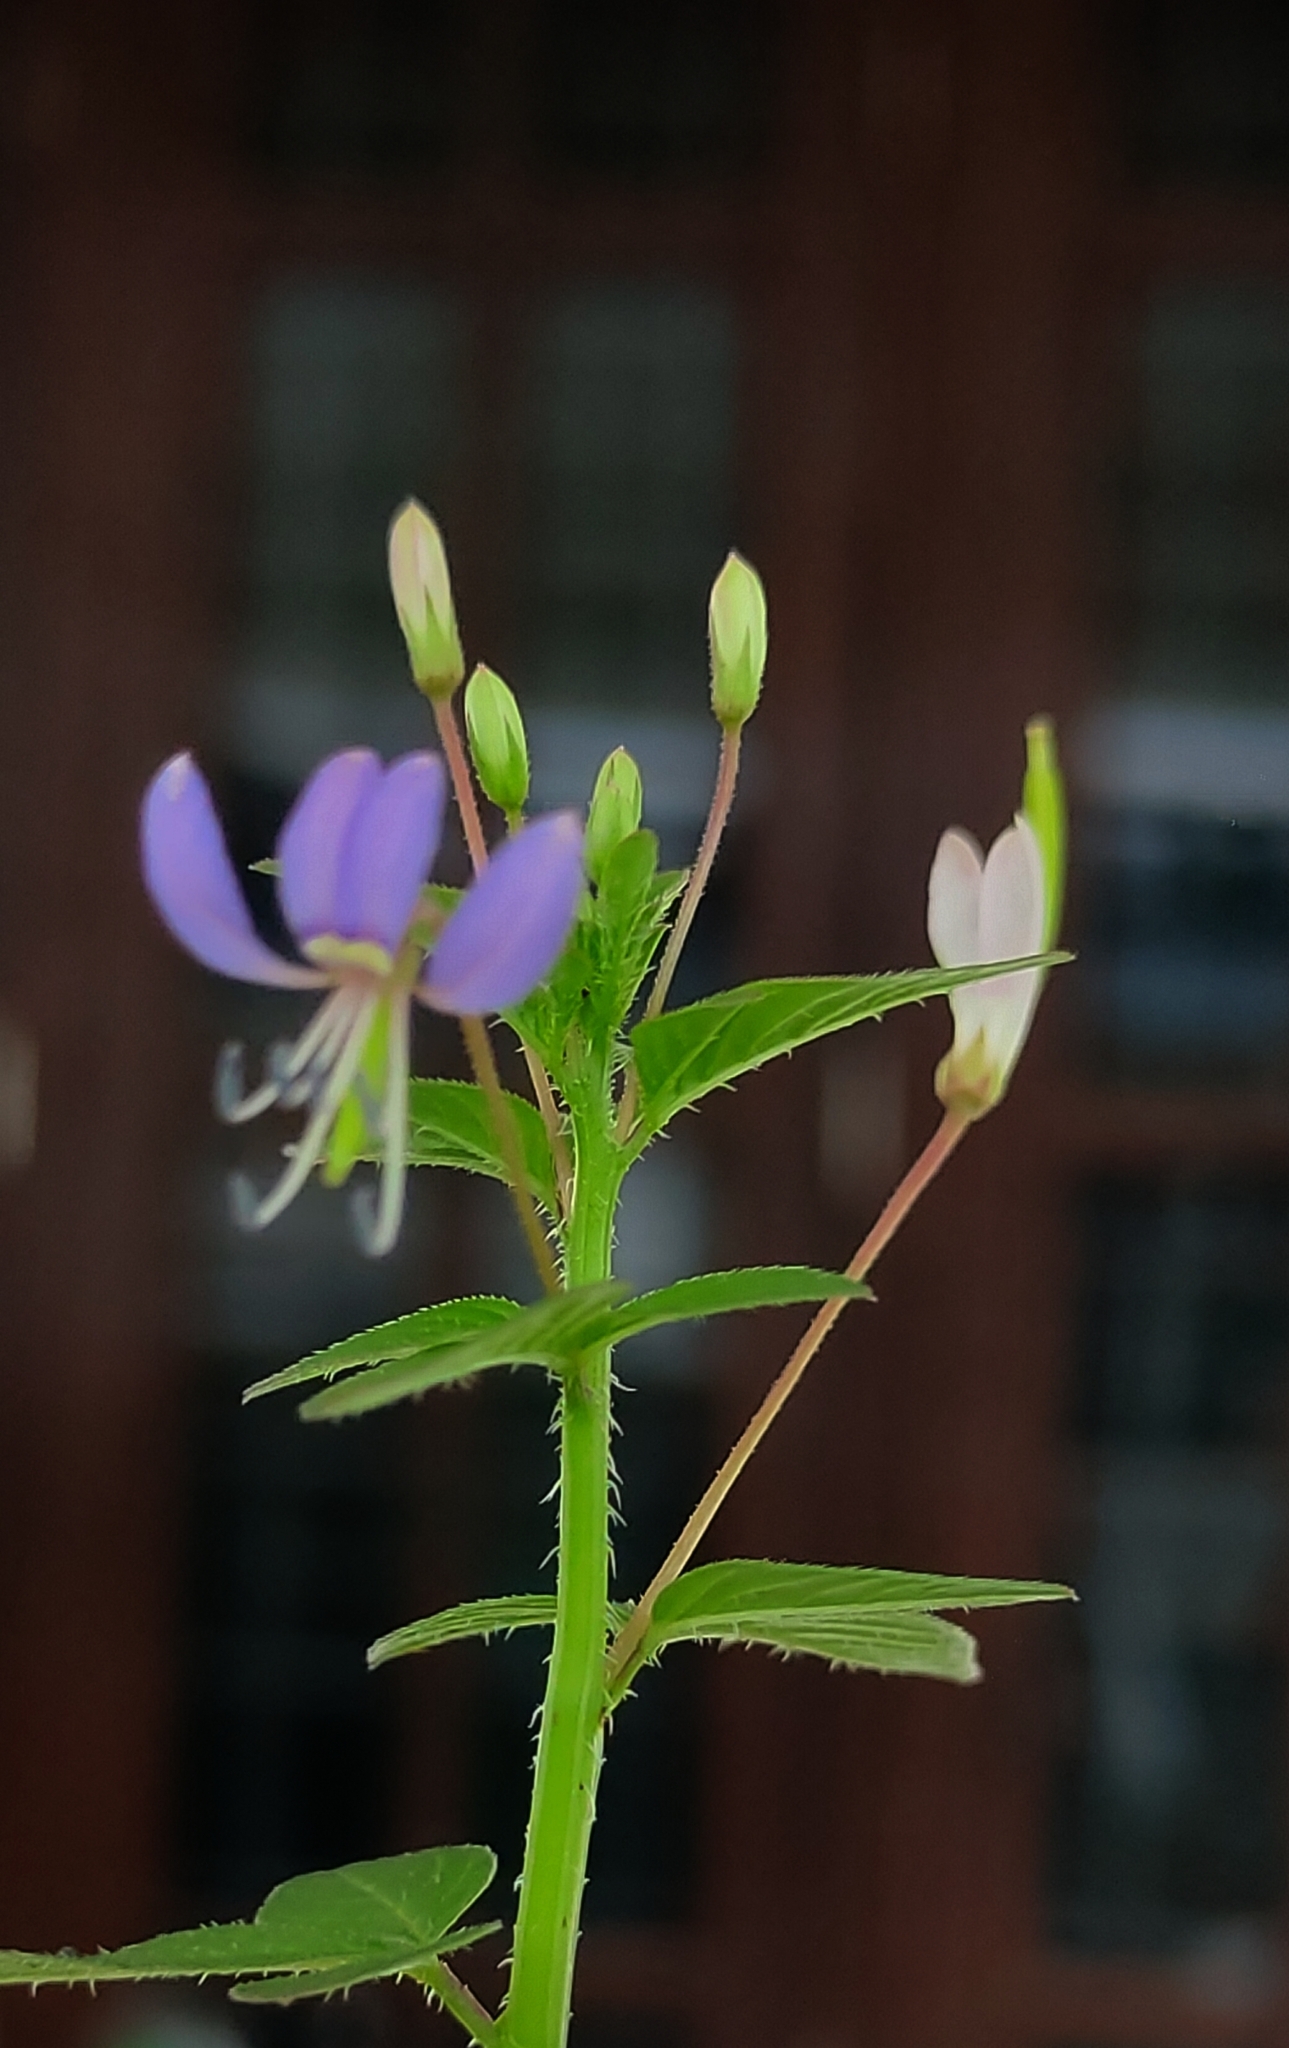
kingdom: Plantae
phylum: Tracheophyta
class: Magnoliopsida
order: Brassicales
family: Cleomaceae
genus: Sieruela
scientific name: Sieruela rutidosperma
